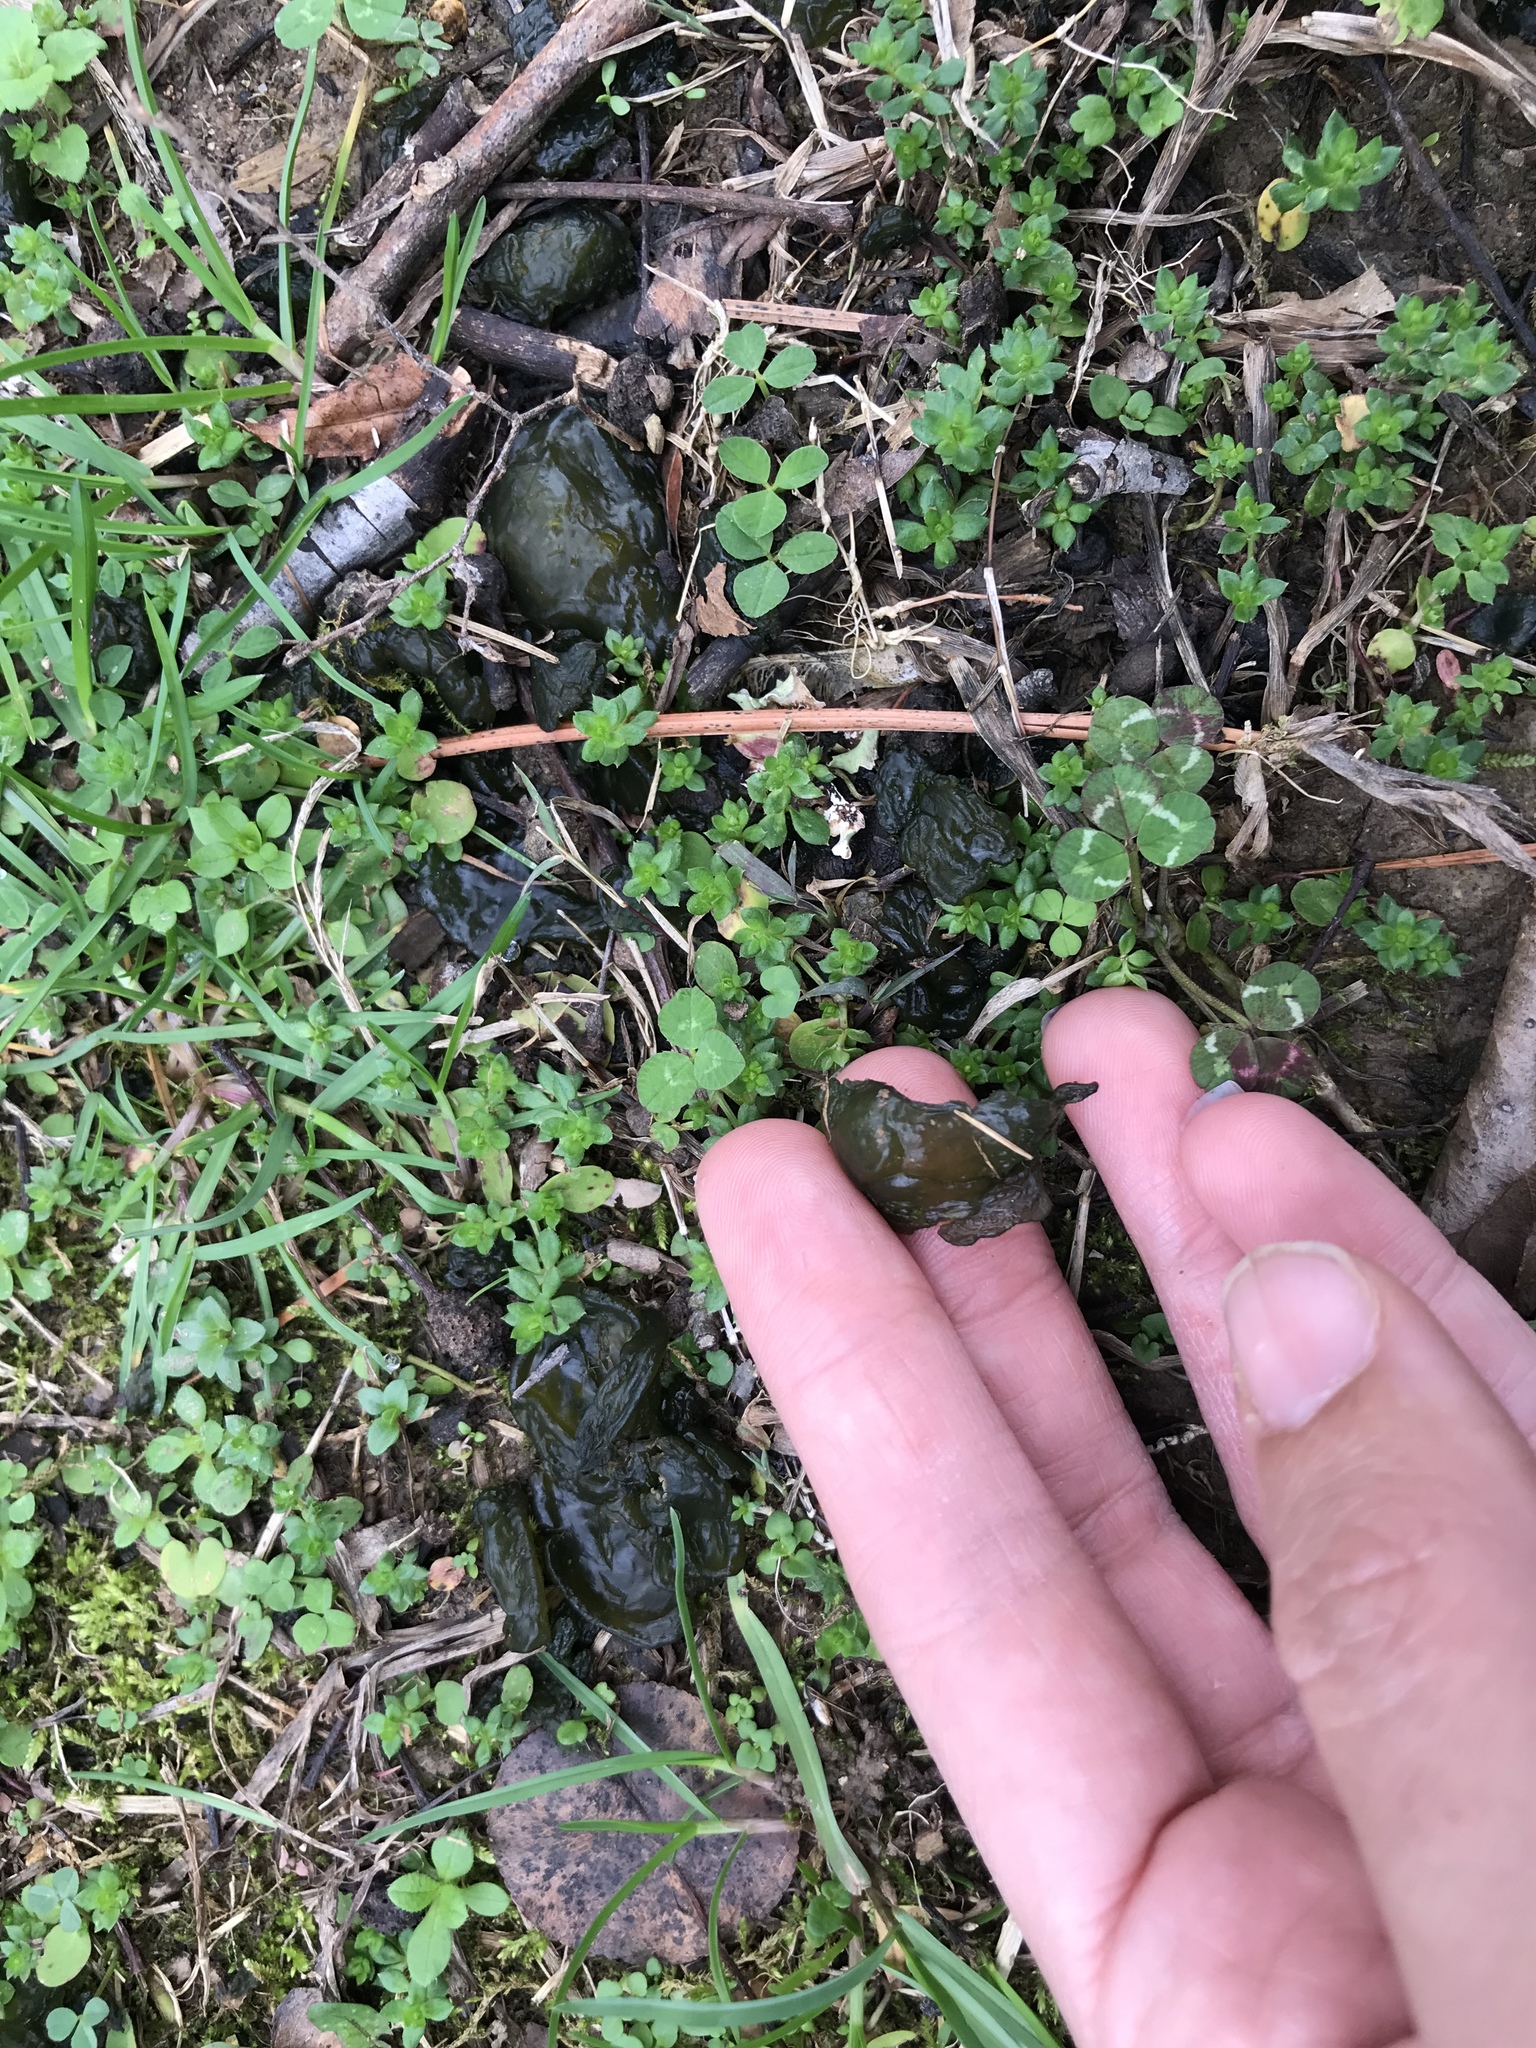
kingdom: Bacteria
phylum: Cyanobacteria
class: Cyanobacteriia
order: Cyanobacteriales
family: Nostocaceae
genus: Nostoc
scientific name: Nostoc commune
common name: Star jelly
